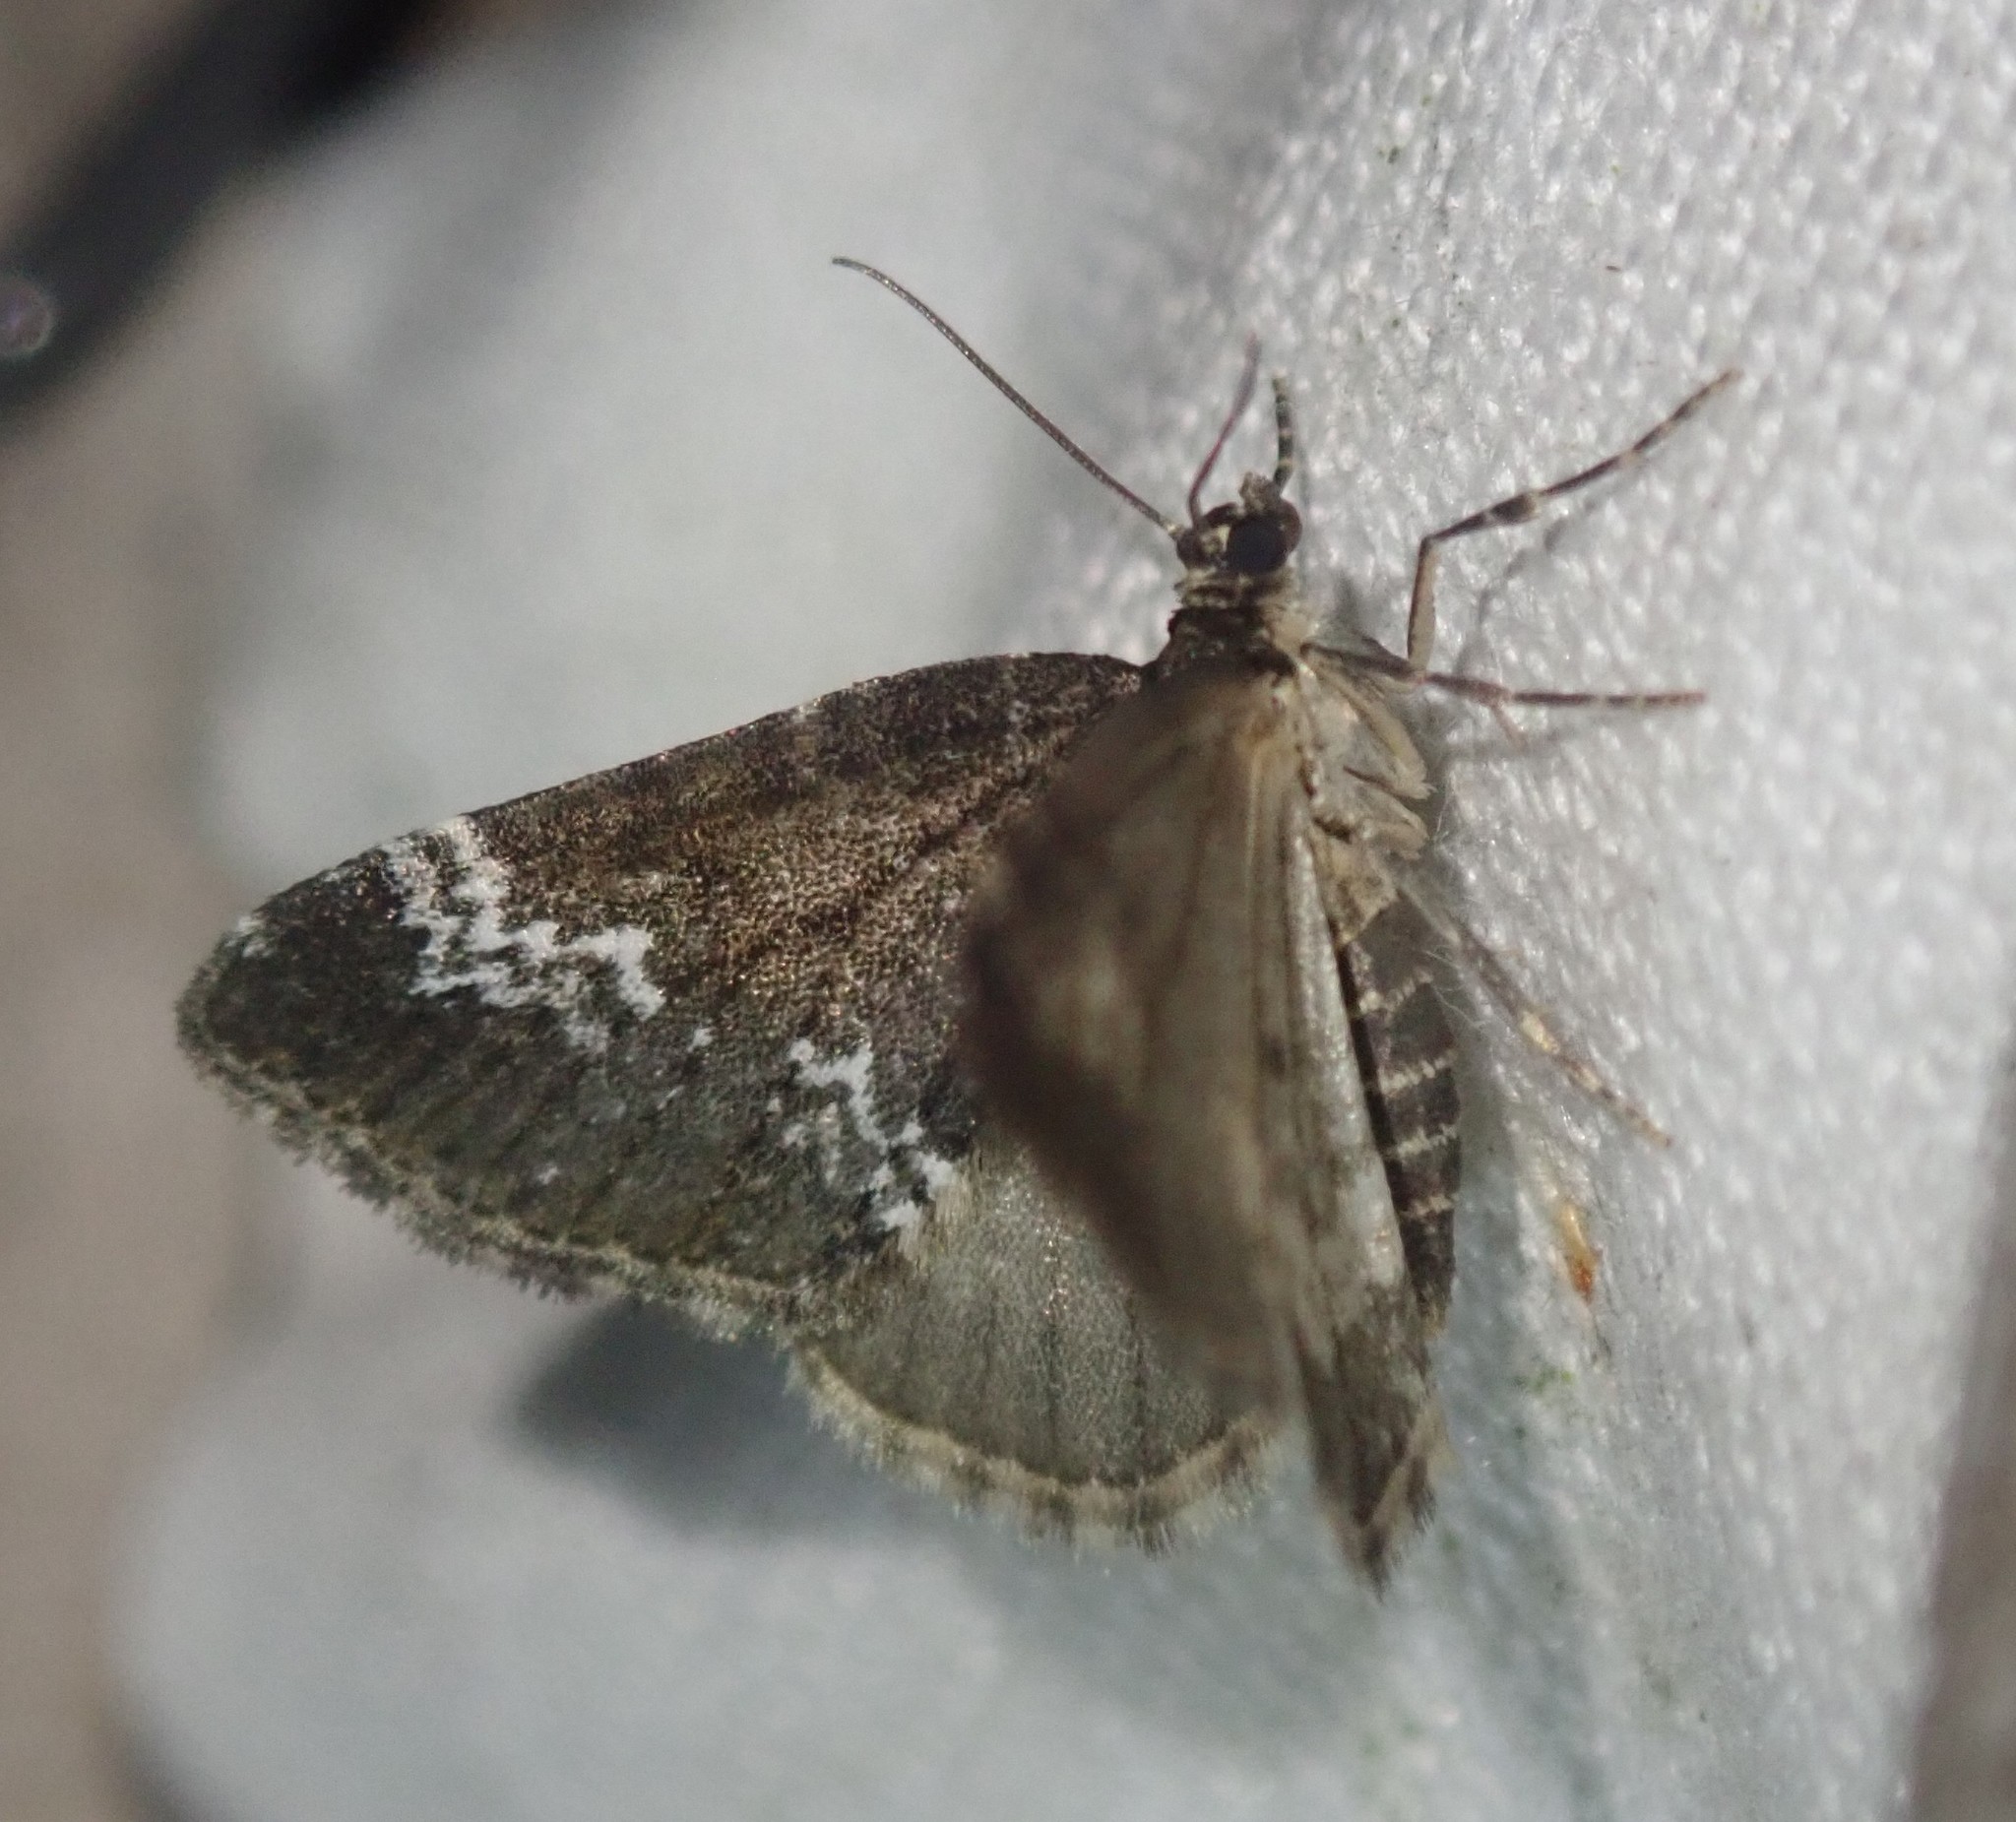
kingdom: Animalia
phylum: Arthropoda
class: Insecta
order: Lepidoptera
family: Geometridae
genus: Perizoma
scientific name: Perizoma alchemillata
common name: Small rivulet
